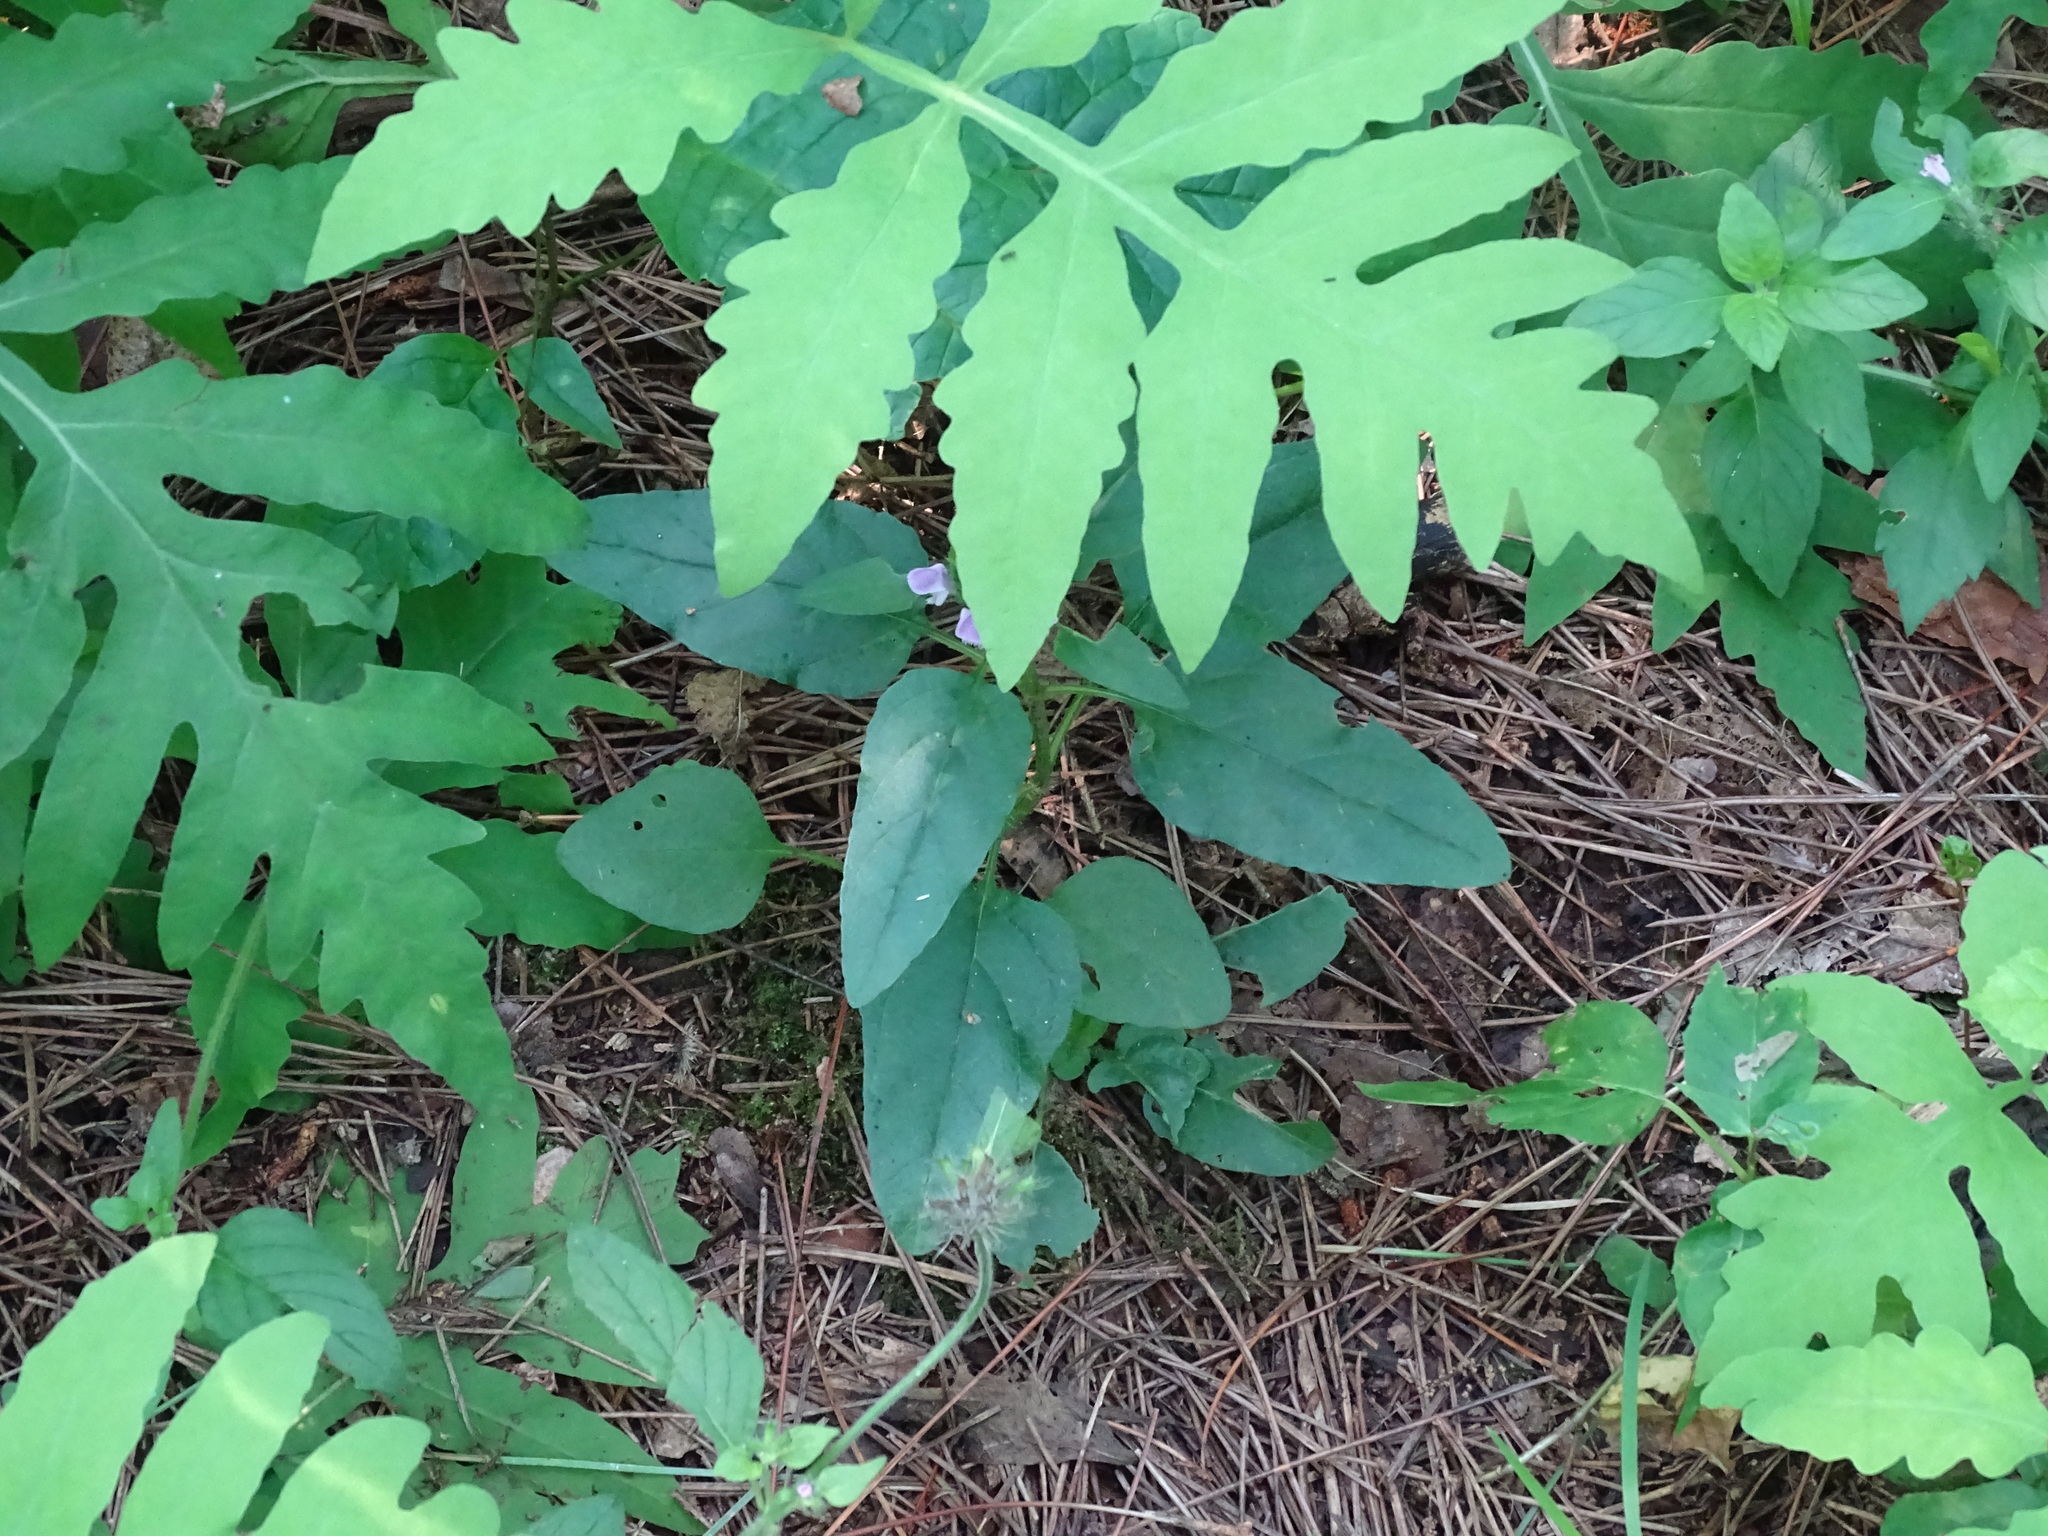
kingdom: Plantae
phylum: Tracheophyta
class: Magnoliopsida
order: Lamiales
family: Lamiaceae
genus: Prunella
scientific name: Prunella vulgaris
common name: Heal-all
